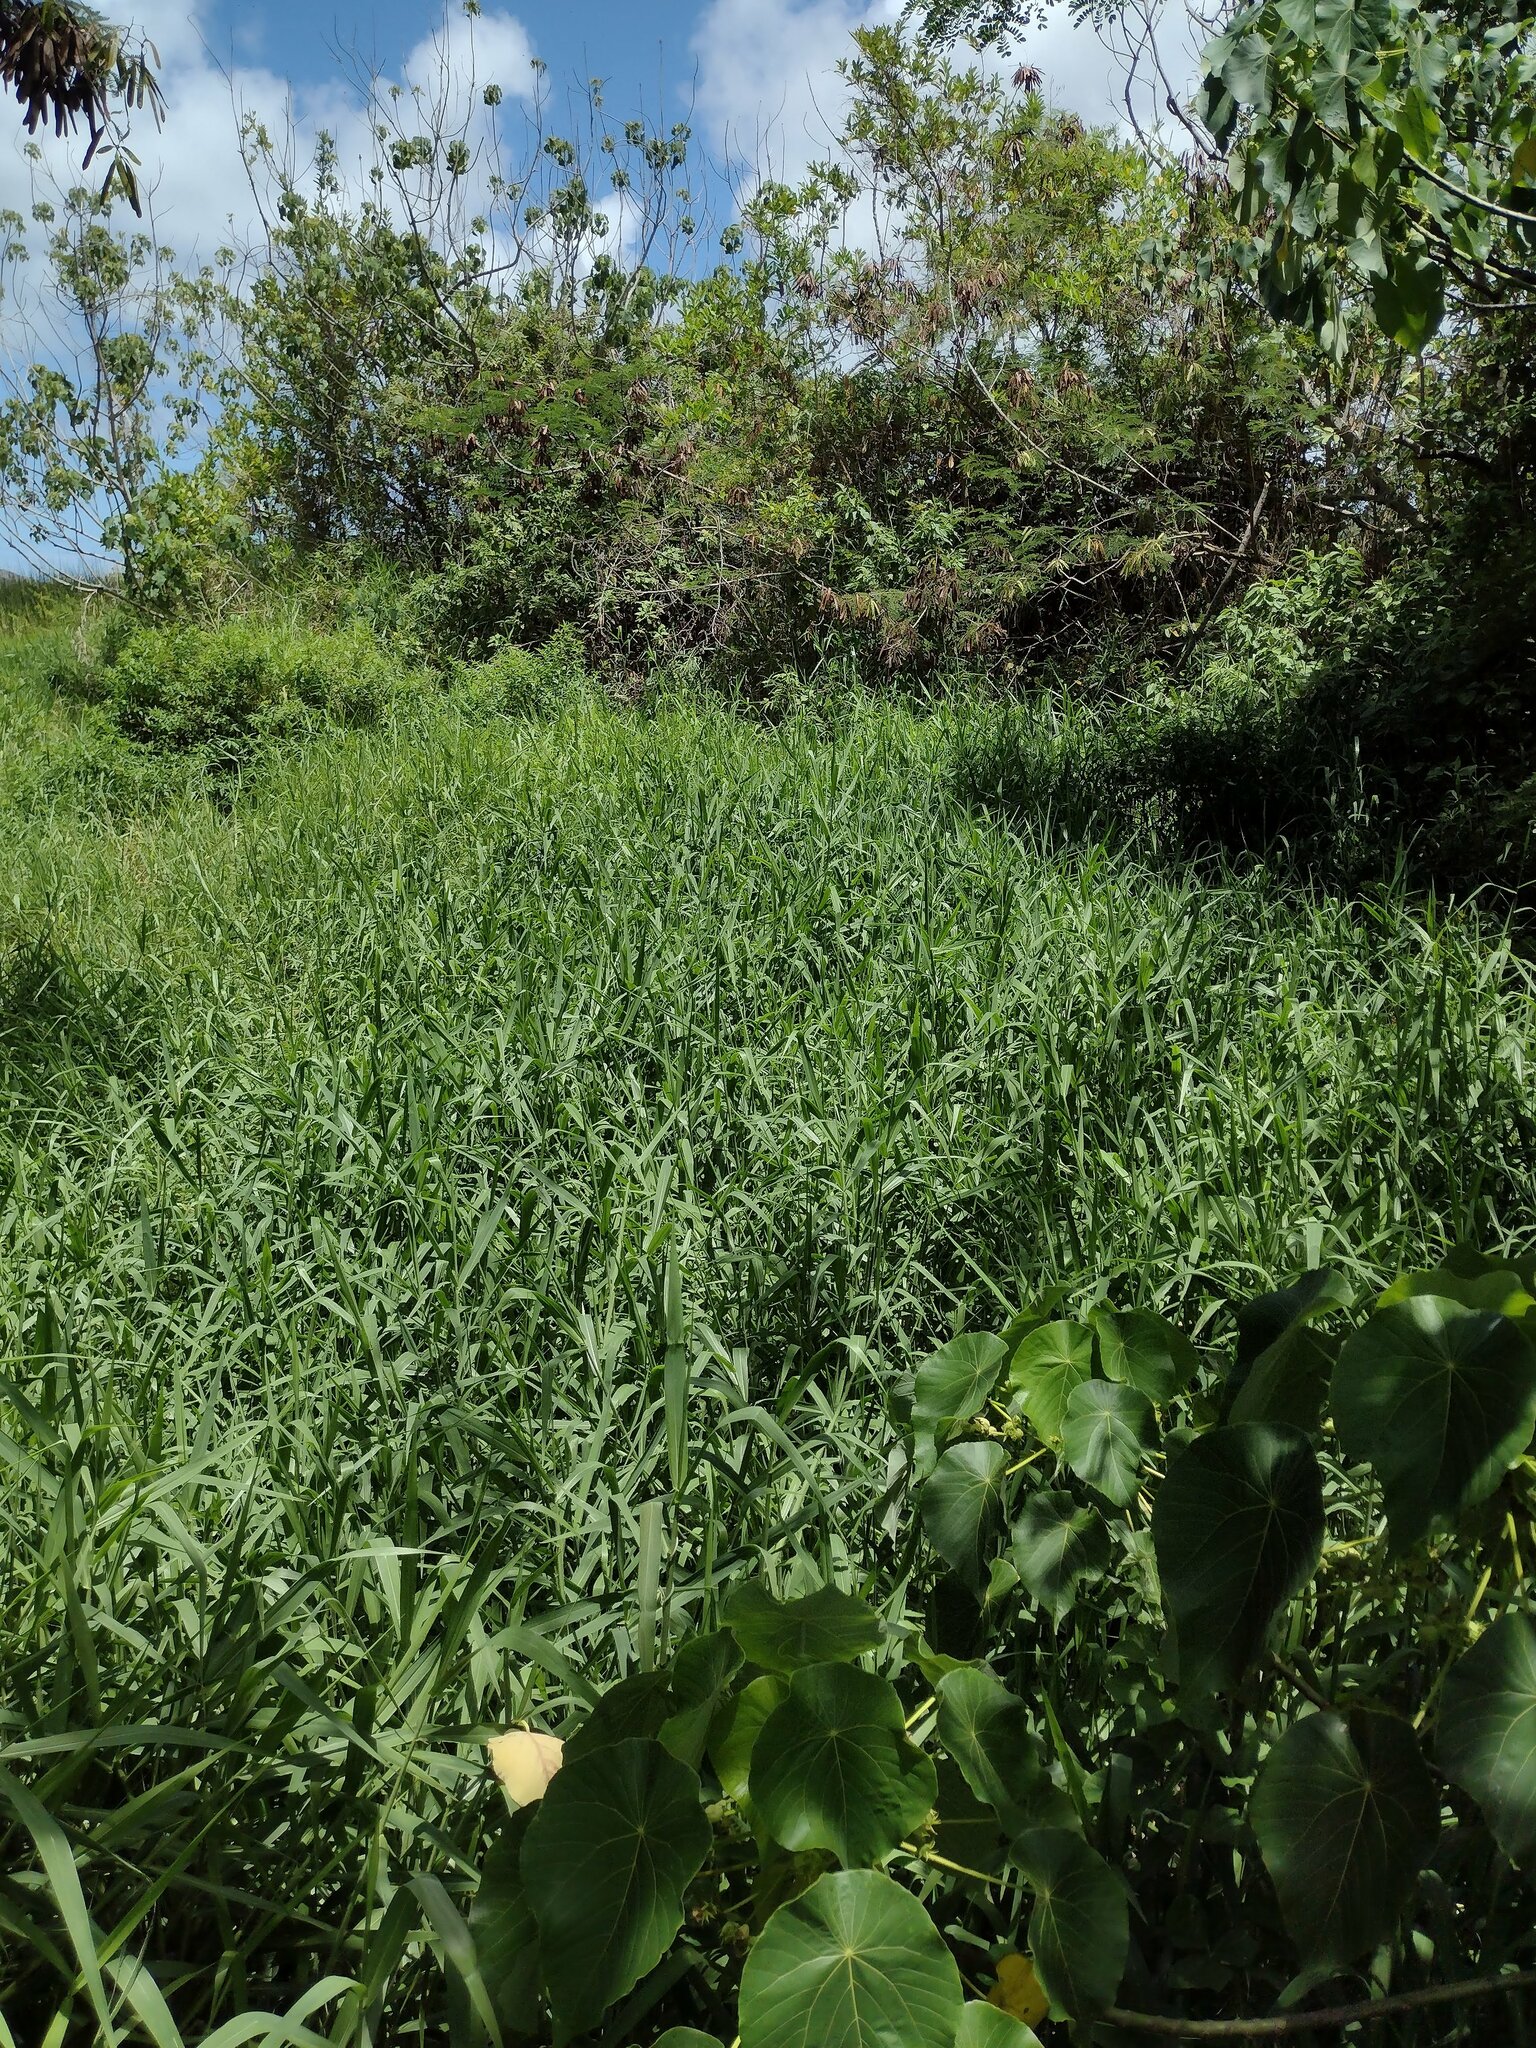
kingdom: Plantae
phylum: Tracheophyta
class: Liliopsida
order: Poales
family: Poaceae
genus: Urochloa
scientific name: Urochloa mutica
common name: Para grass
